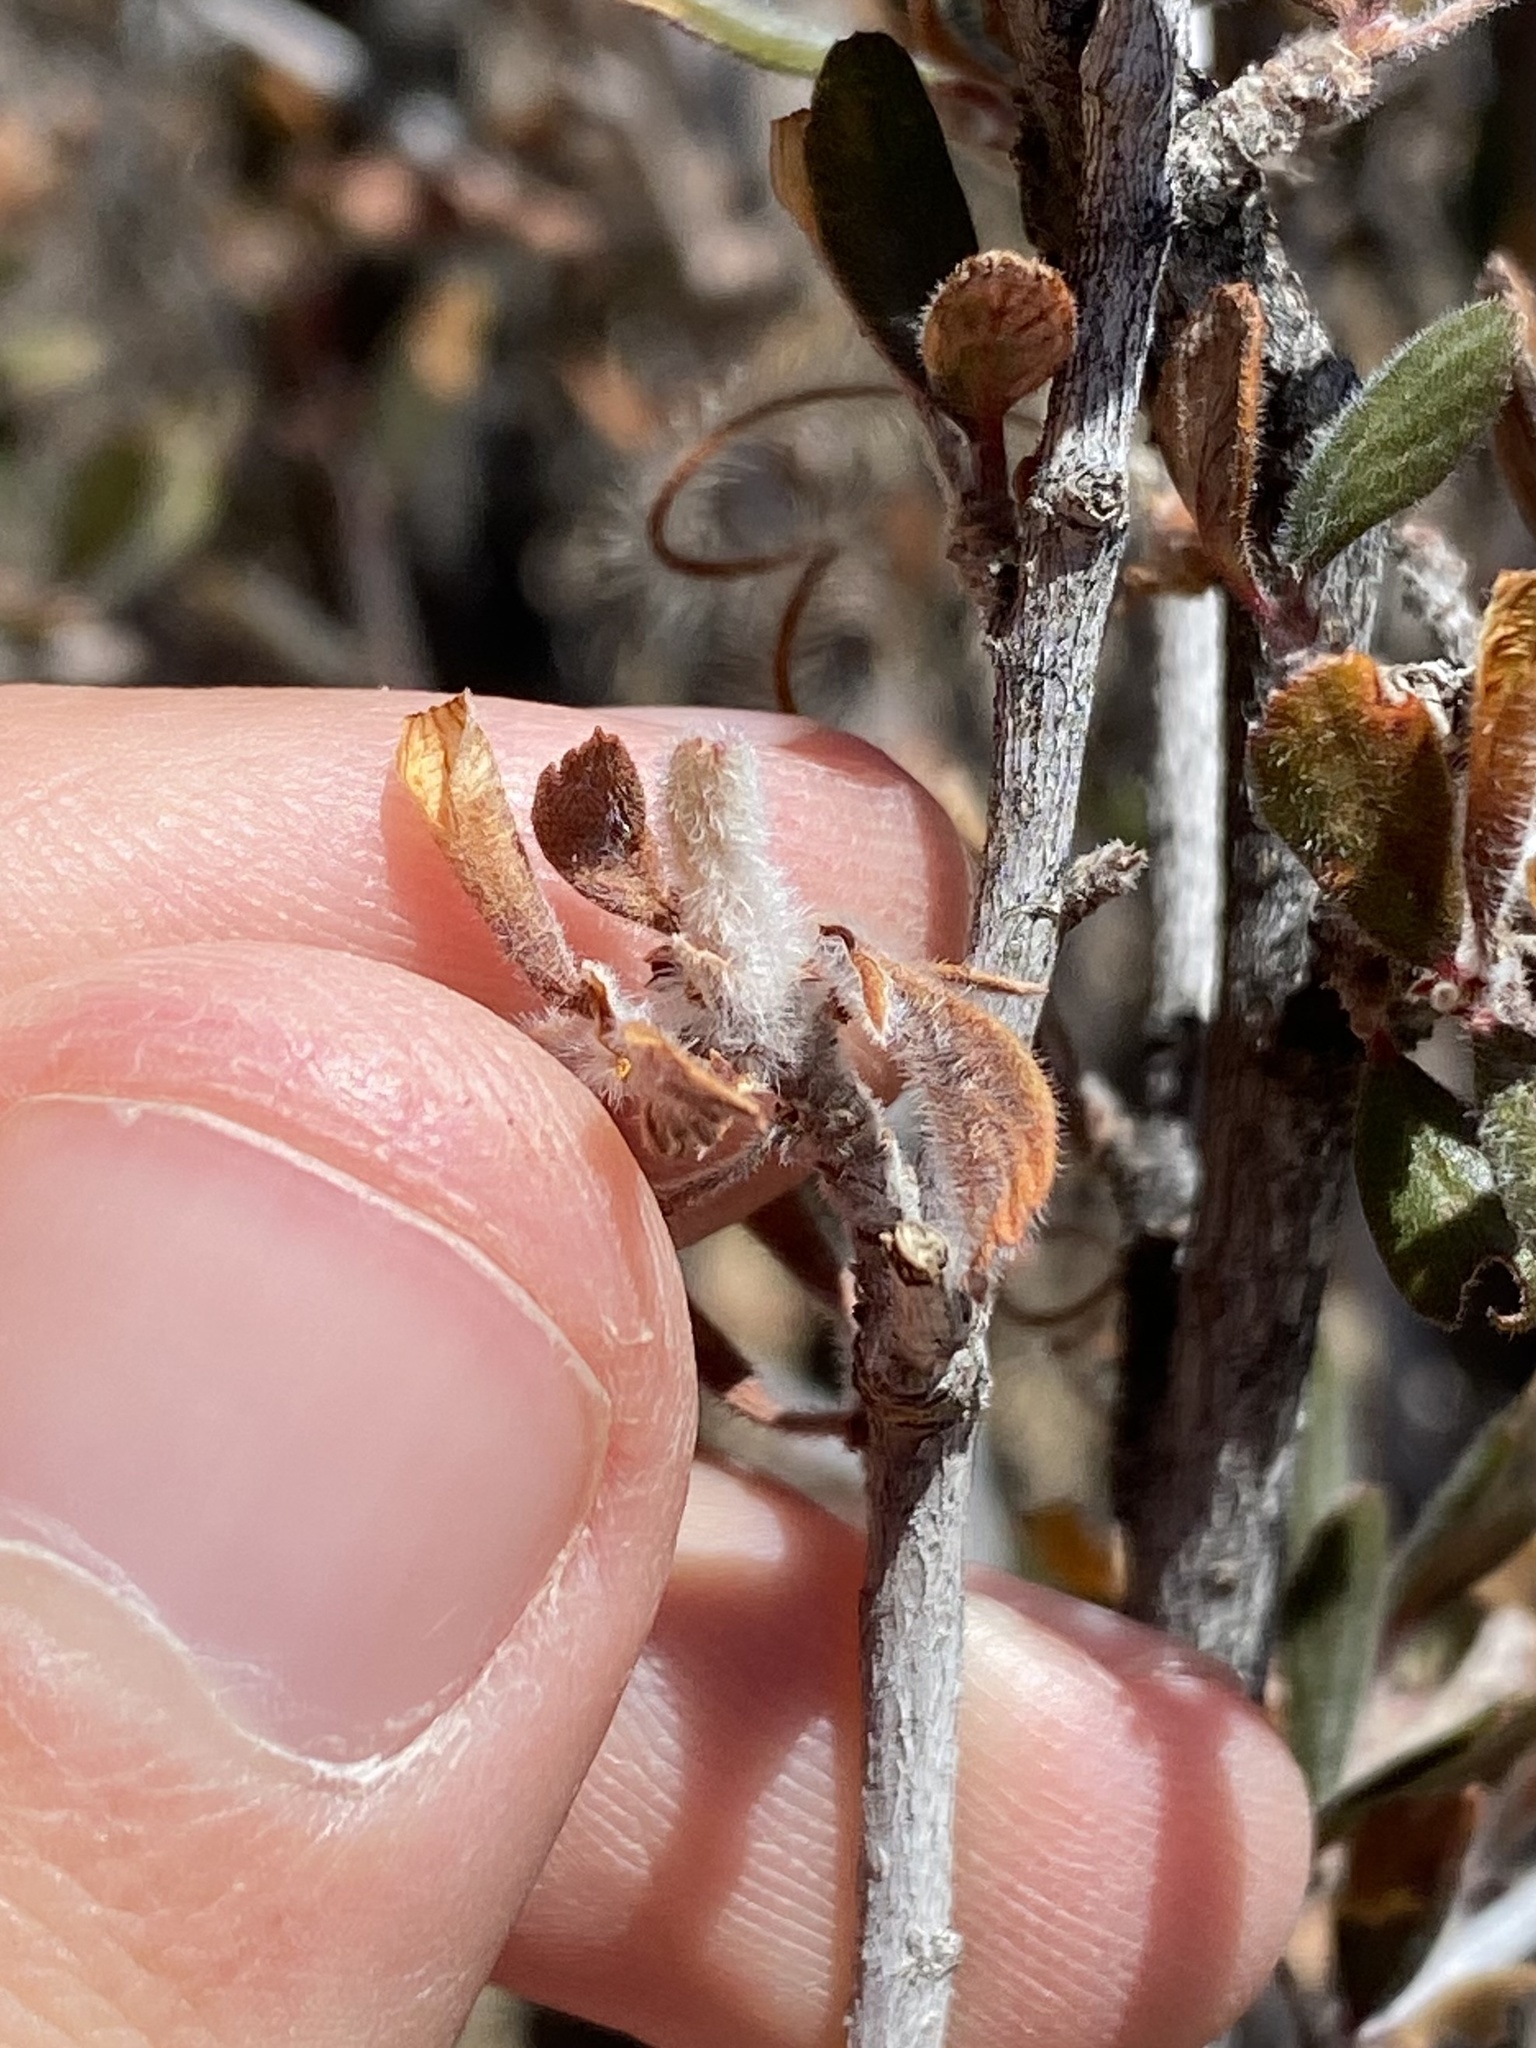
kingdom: Animalia
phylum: Arthropoda
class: Insecta
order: Diptera
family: Cecidomyiidae
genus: Dasineura
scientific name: Dasineura cercocarpi
